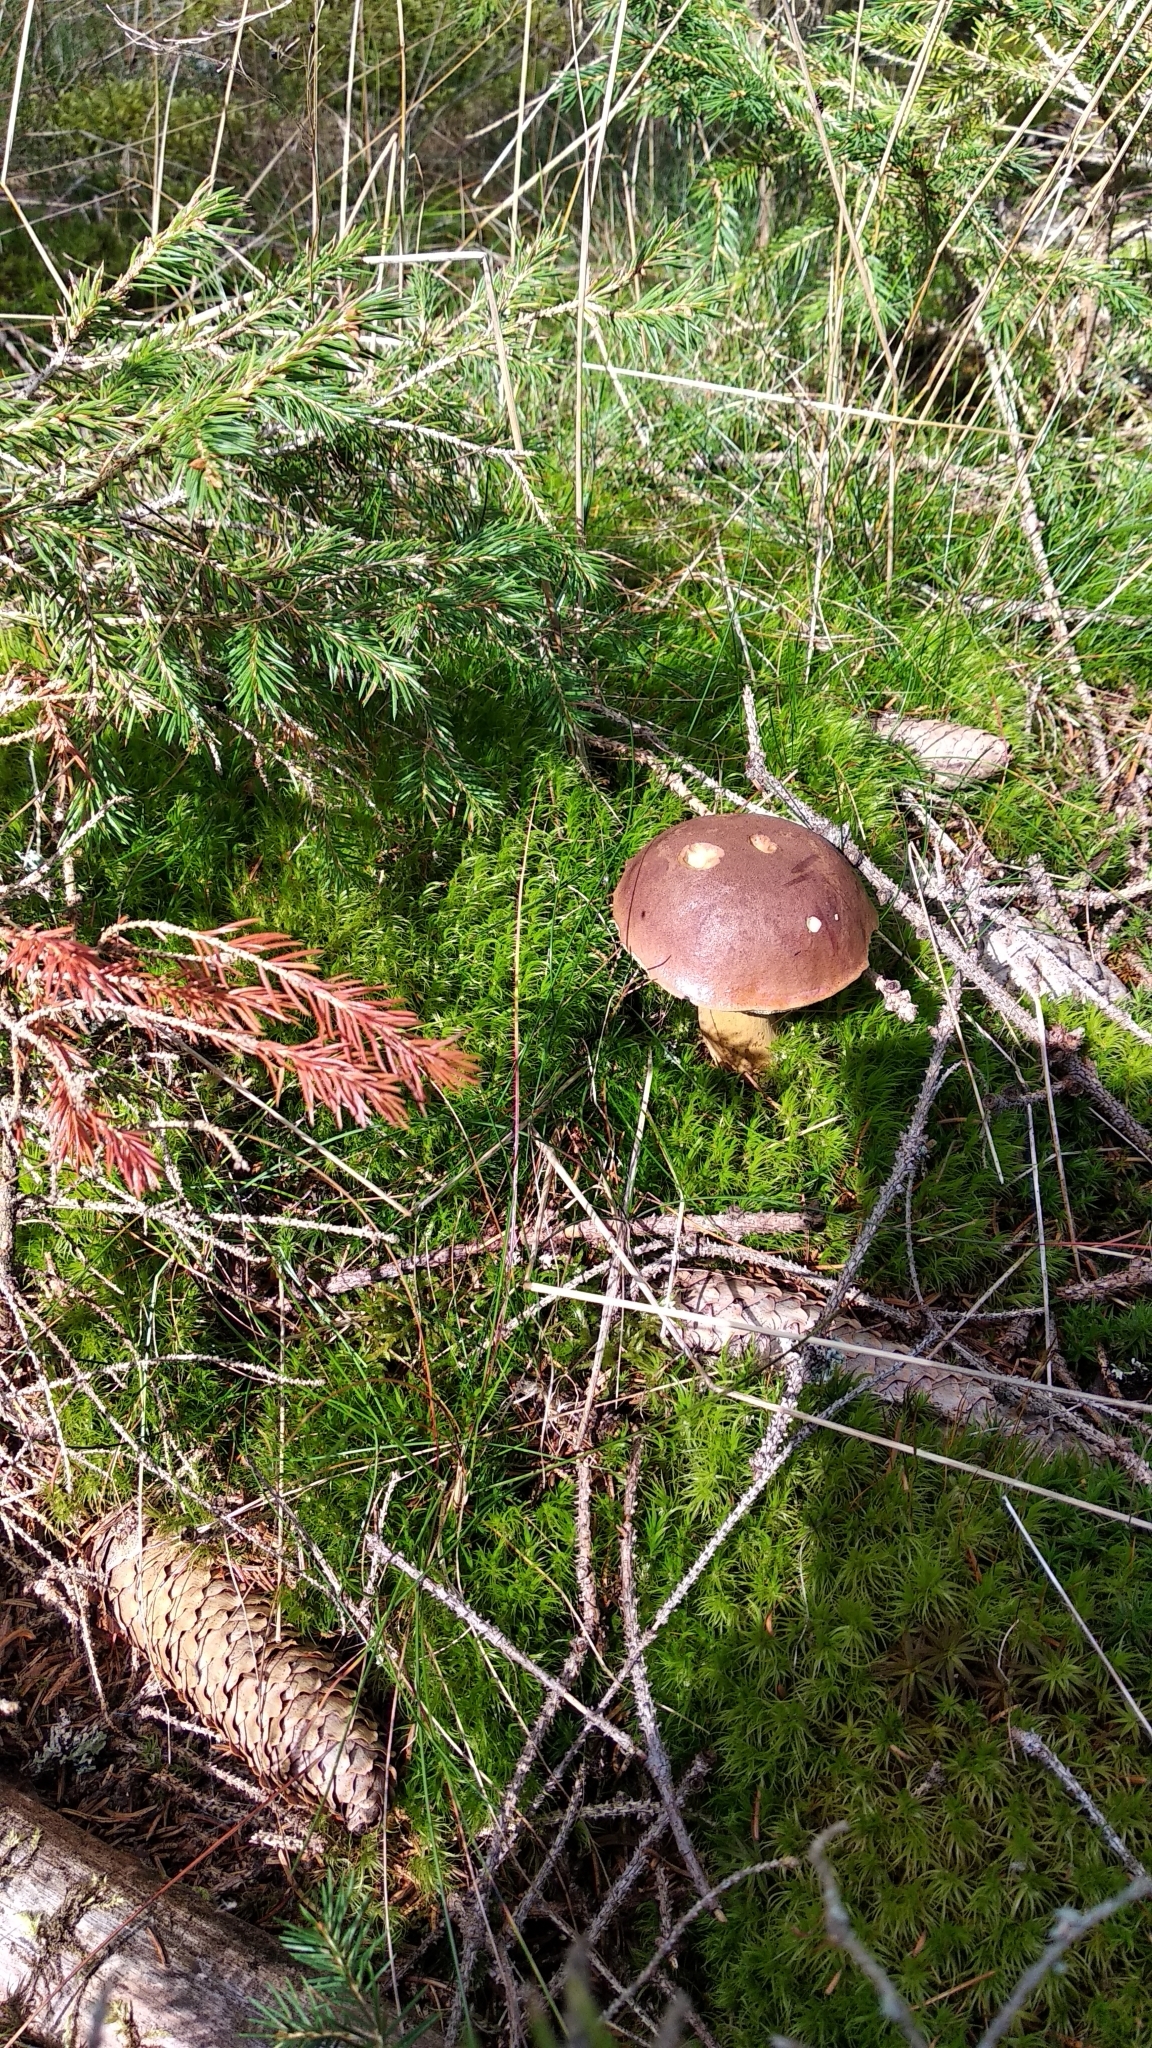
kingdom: Fungi
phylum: Basidiomycota
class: Agaricomycetes
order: Boletales
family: Boletaceae
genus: Imleria
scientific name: Imleria badia
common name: Bay bolete
